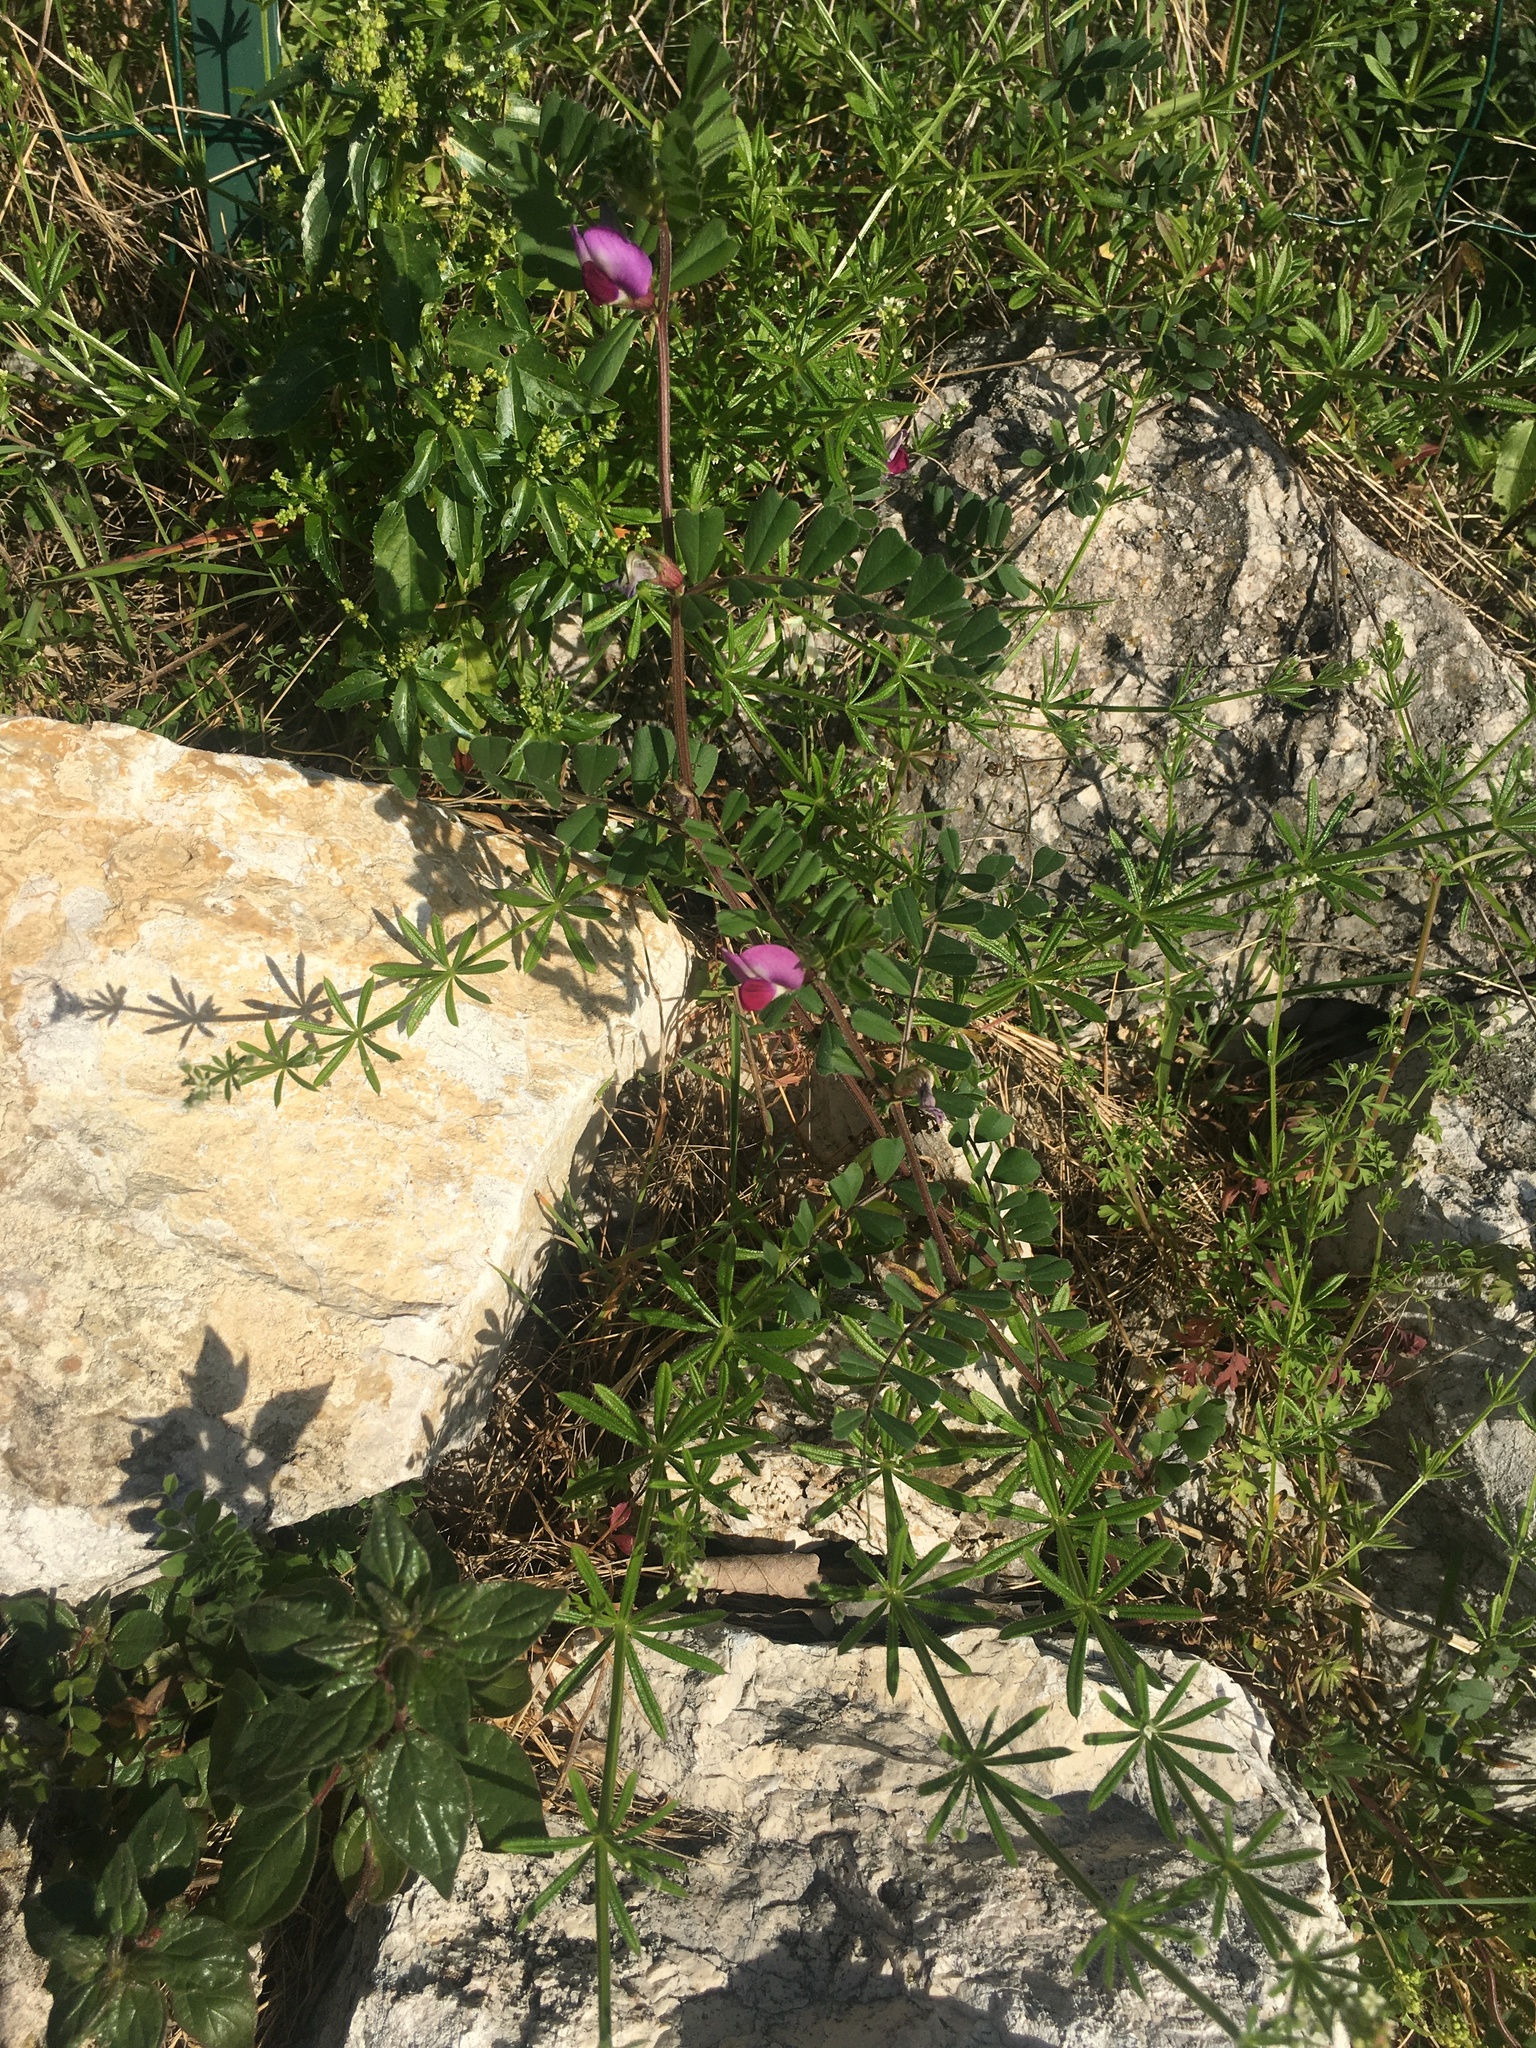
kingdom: Plantae
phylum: Tracheophyta
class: Magnoliopsida
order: Fabales
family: Fabaceae
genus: Vicia
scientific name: Vicia sativa
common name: Garden vetch
